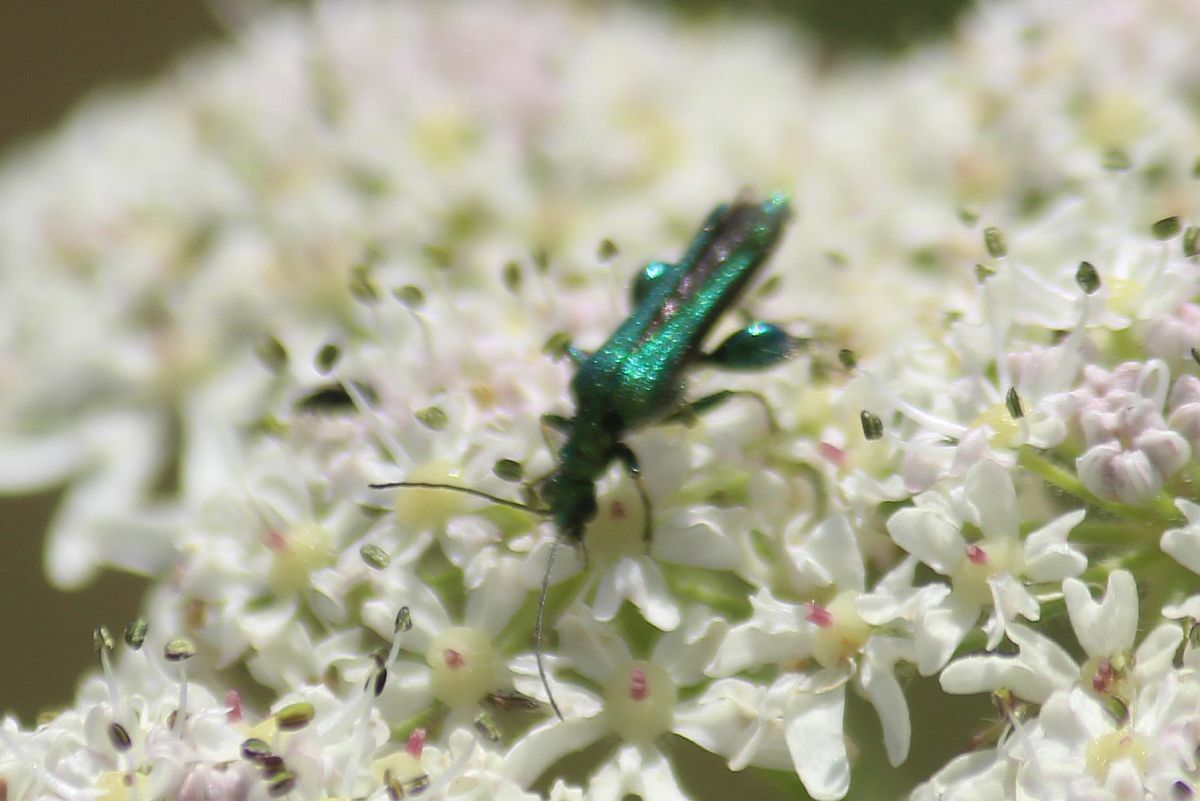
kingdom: Animalia
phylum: Arthropoda
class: Insecta
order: Coleoptera
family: Oedemeridae
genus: Oedemera
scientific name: Oedemera nobilis
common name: Swollen-thighed beetle
